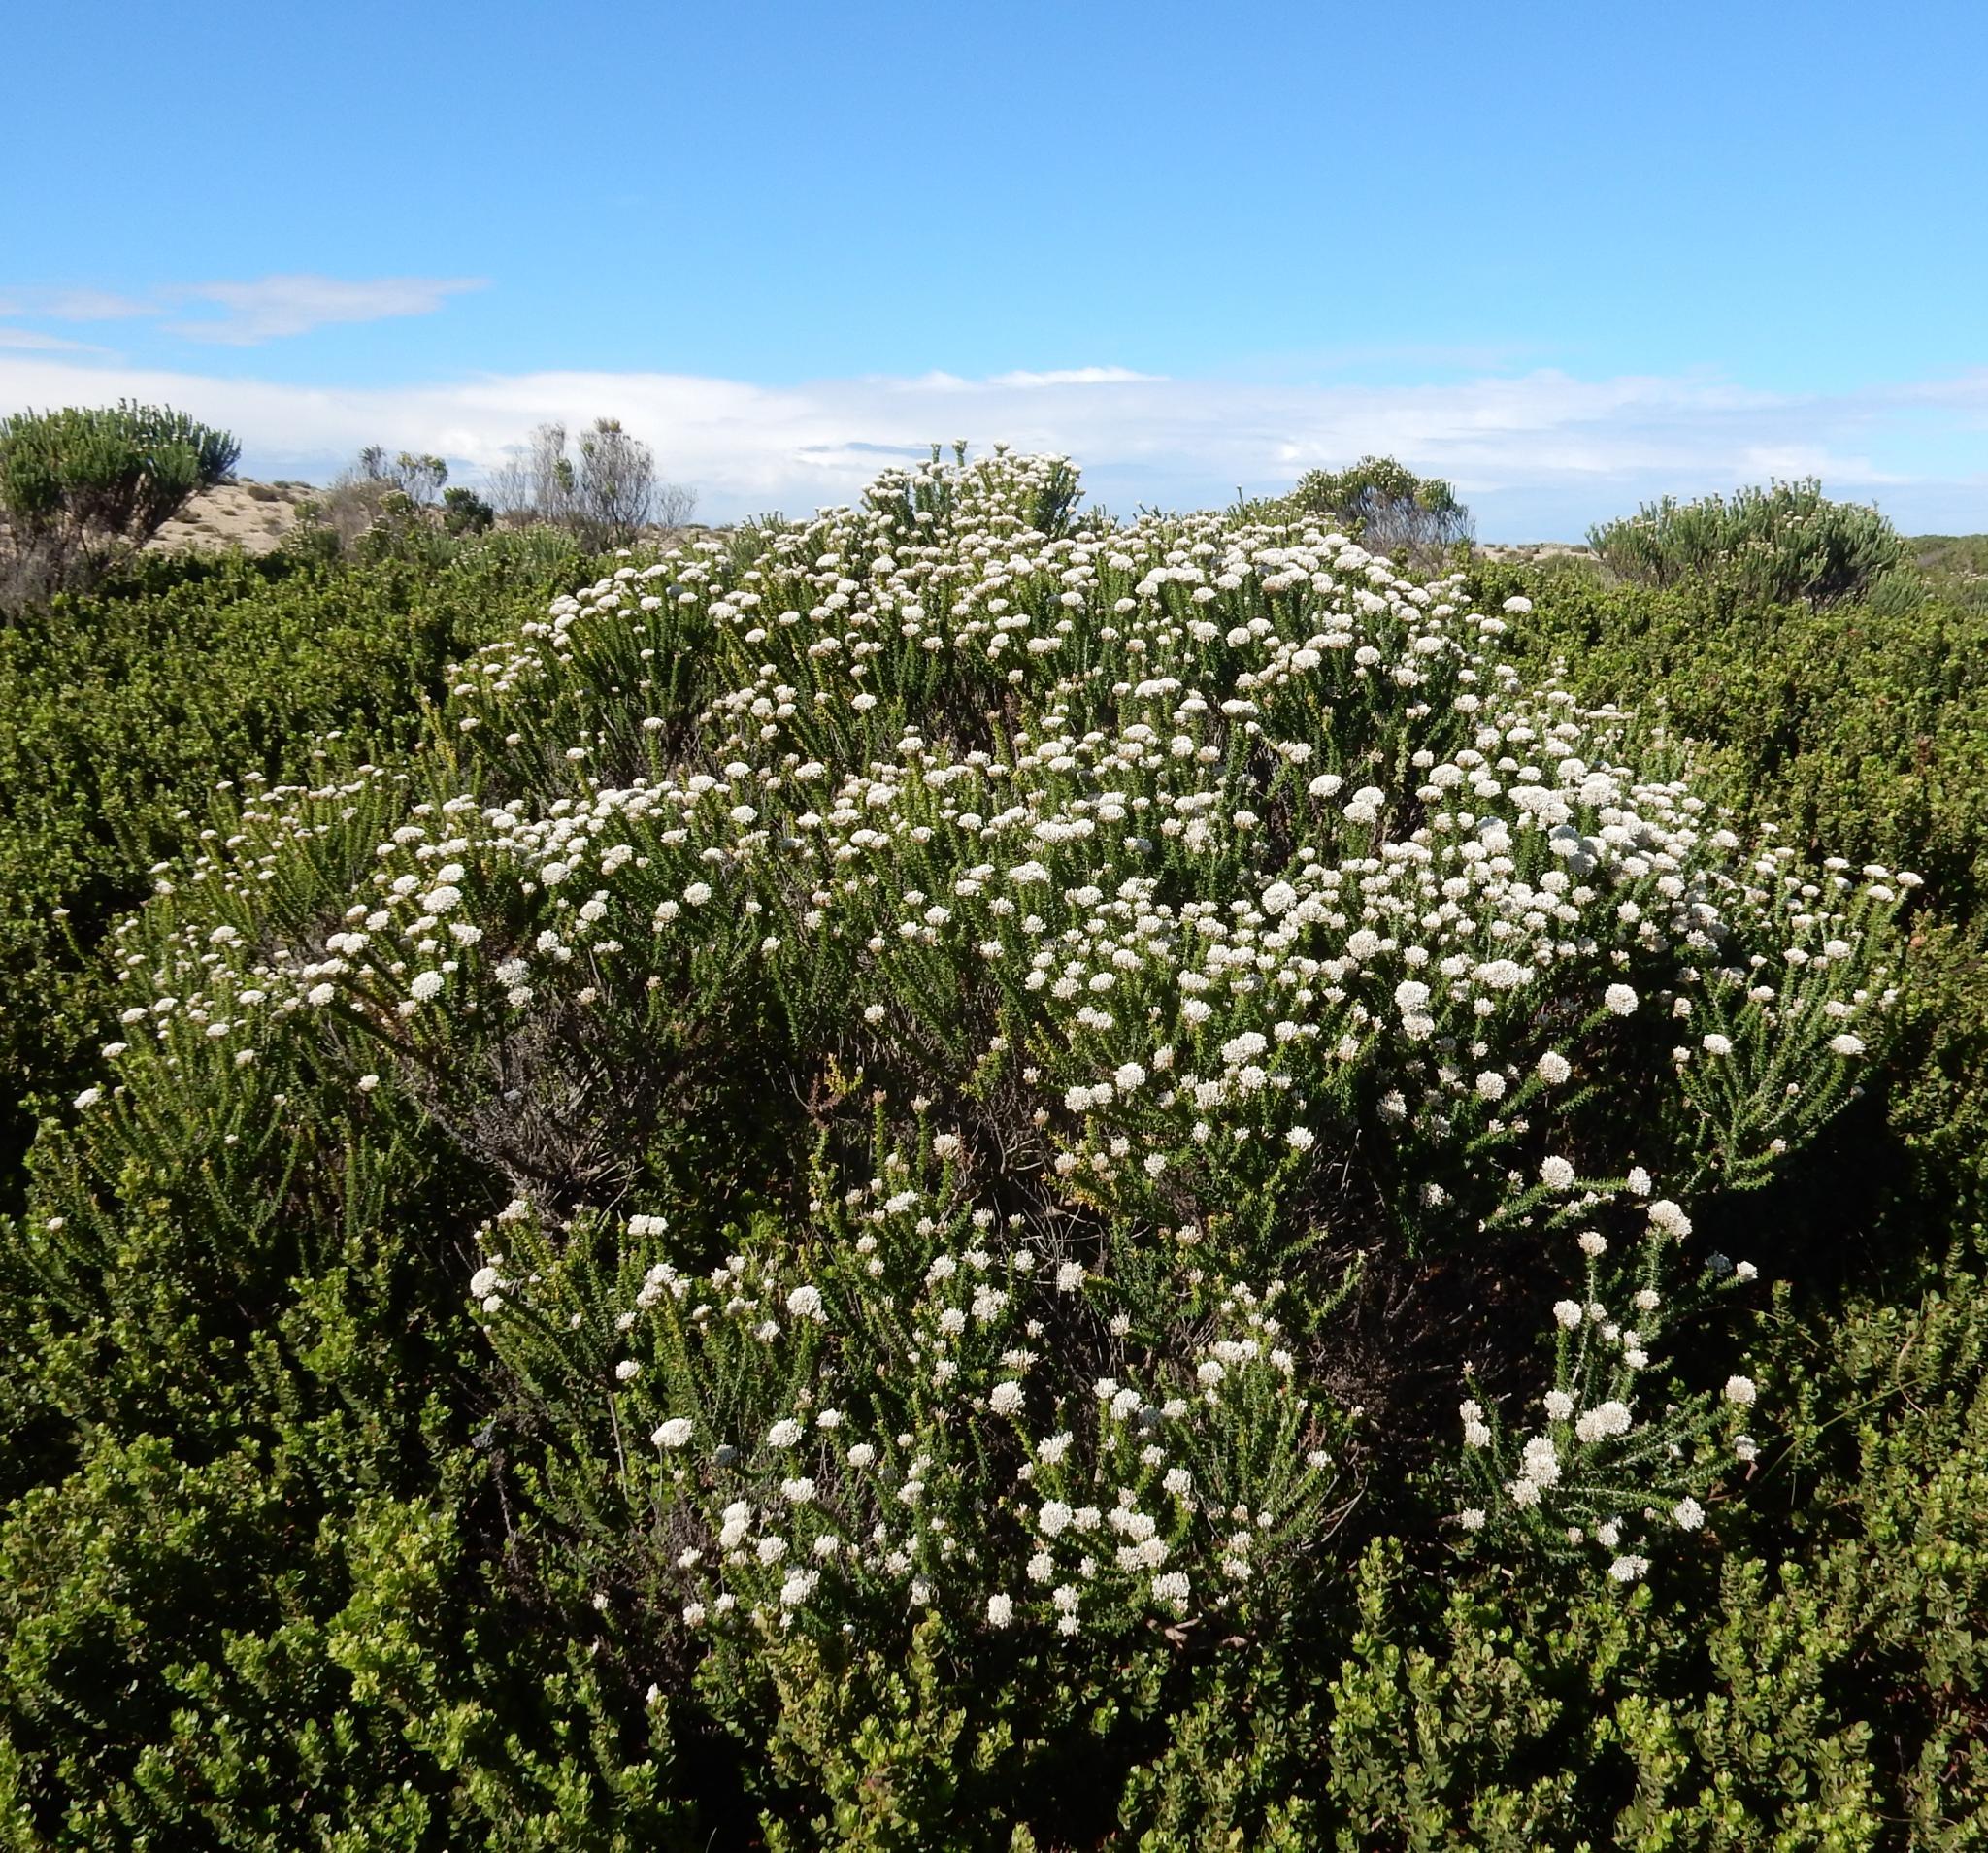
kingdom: Plantae
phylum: Tracheophyta
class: Magnoliopsida
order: Asterales
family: Asteraceae
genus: Metalasia
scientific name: Metalasia muricata
